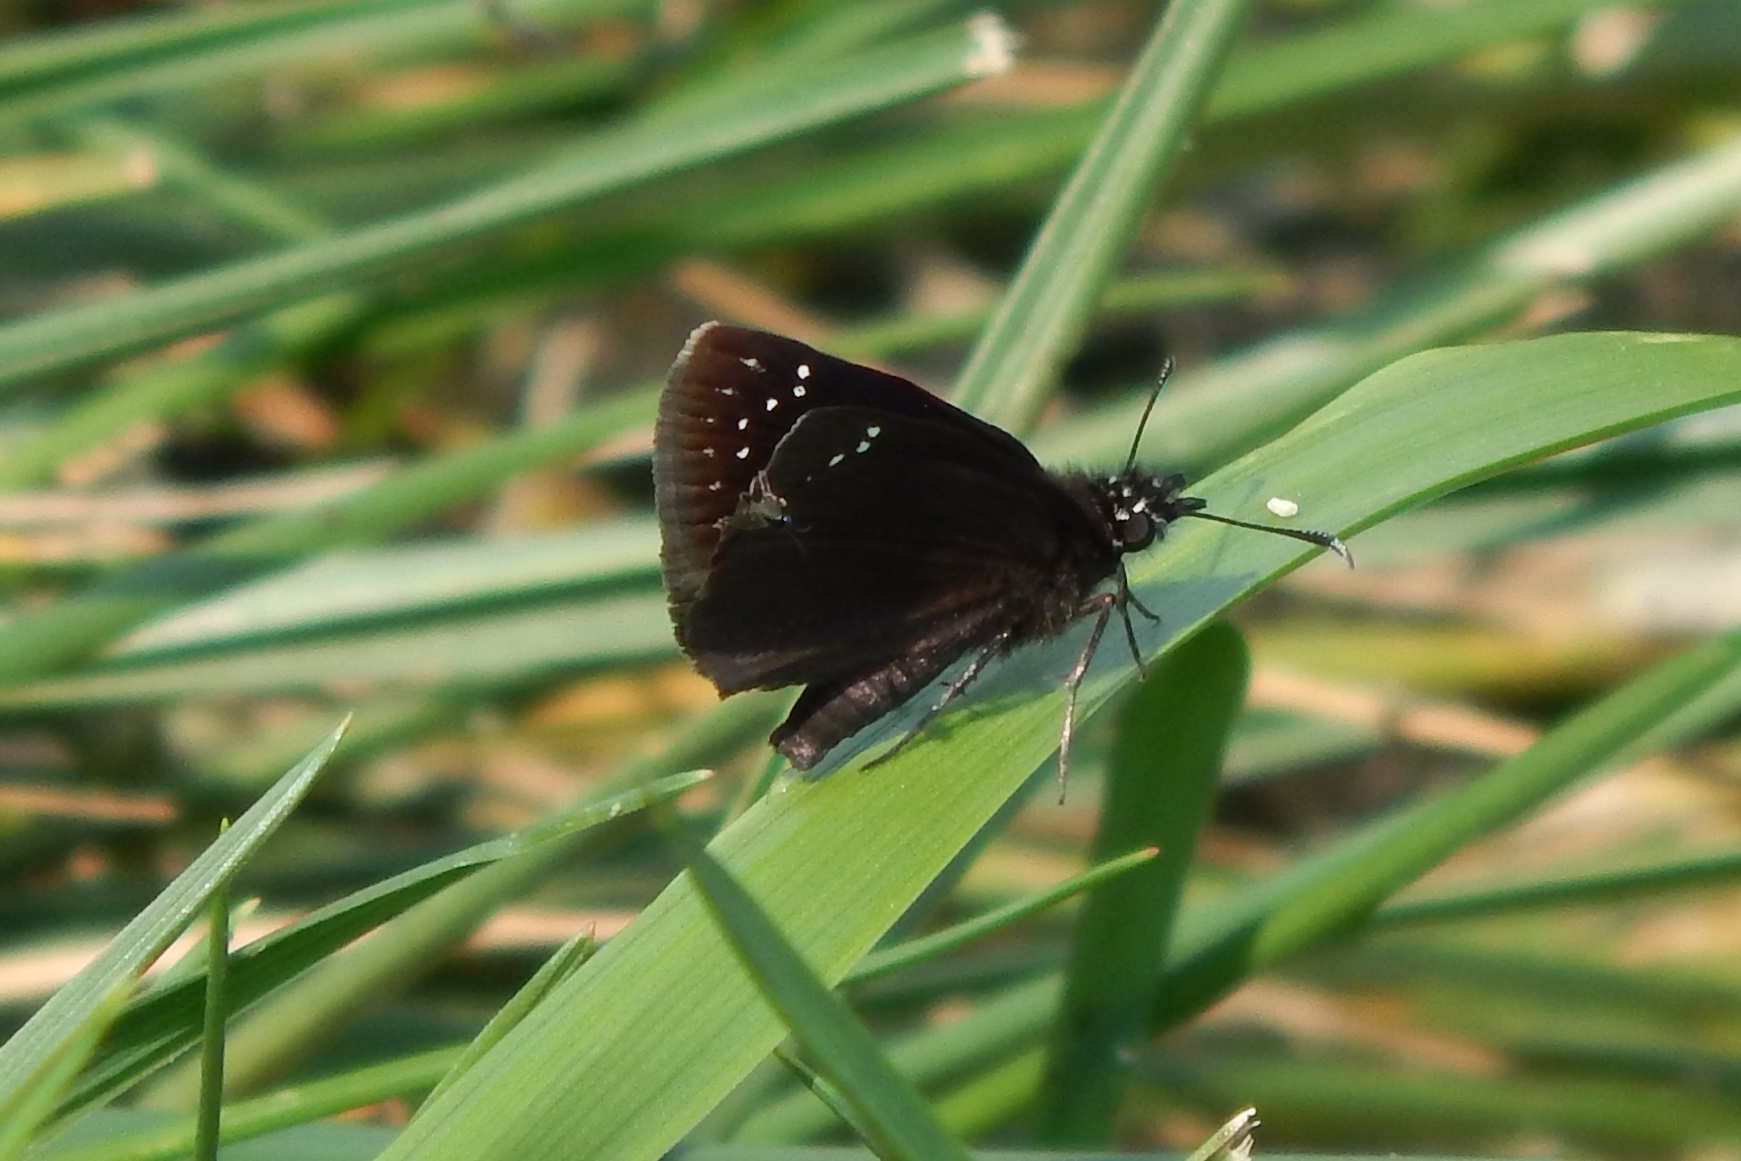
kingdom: Animalia
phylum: Arthropoda
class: Insecta
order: Lepidoptera
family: Hesperiidae
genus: Pholisora
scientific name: Pholisora catullus
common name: Common sootywing
